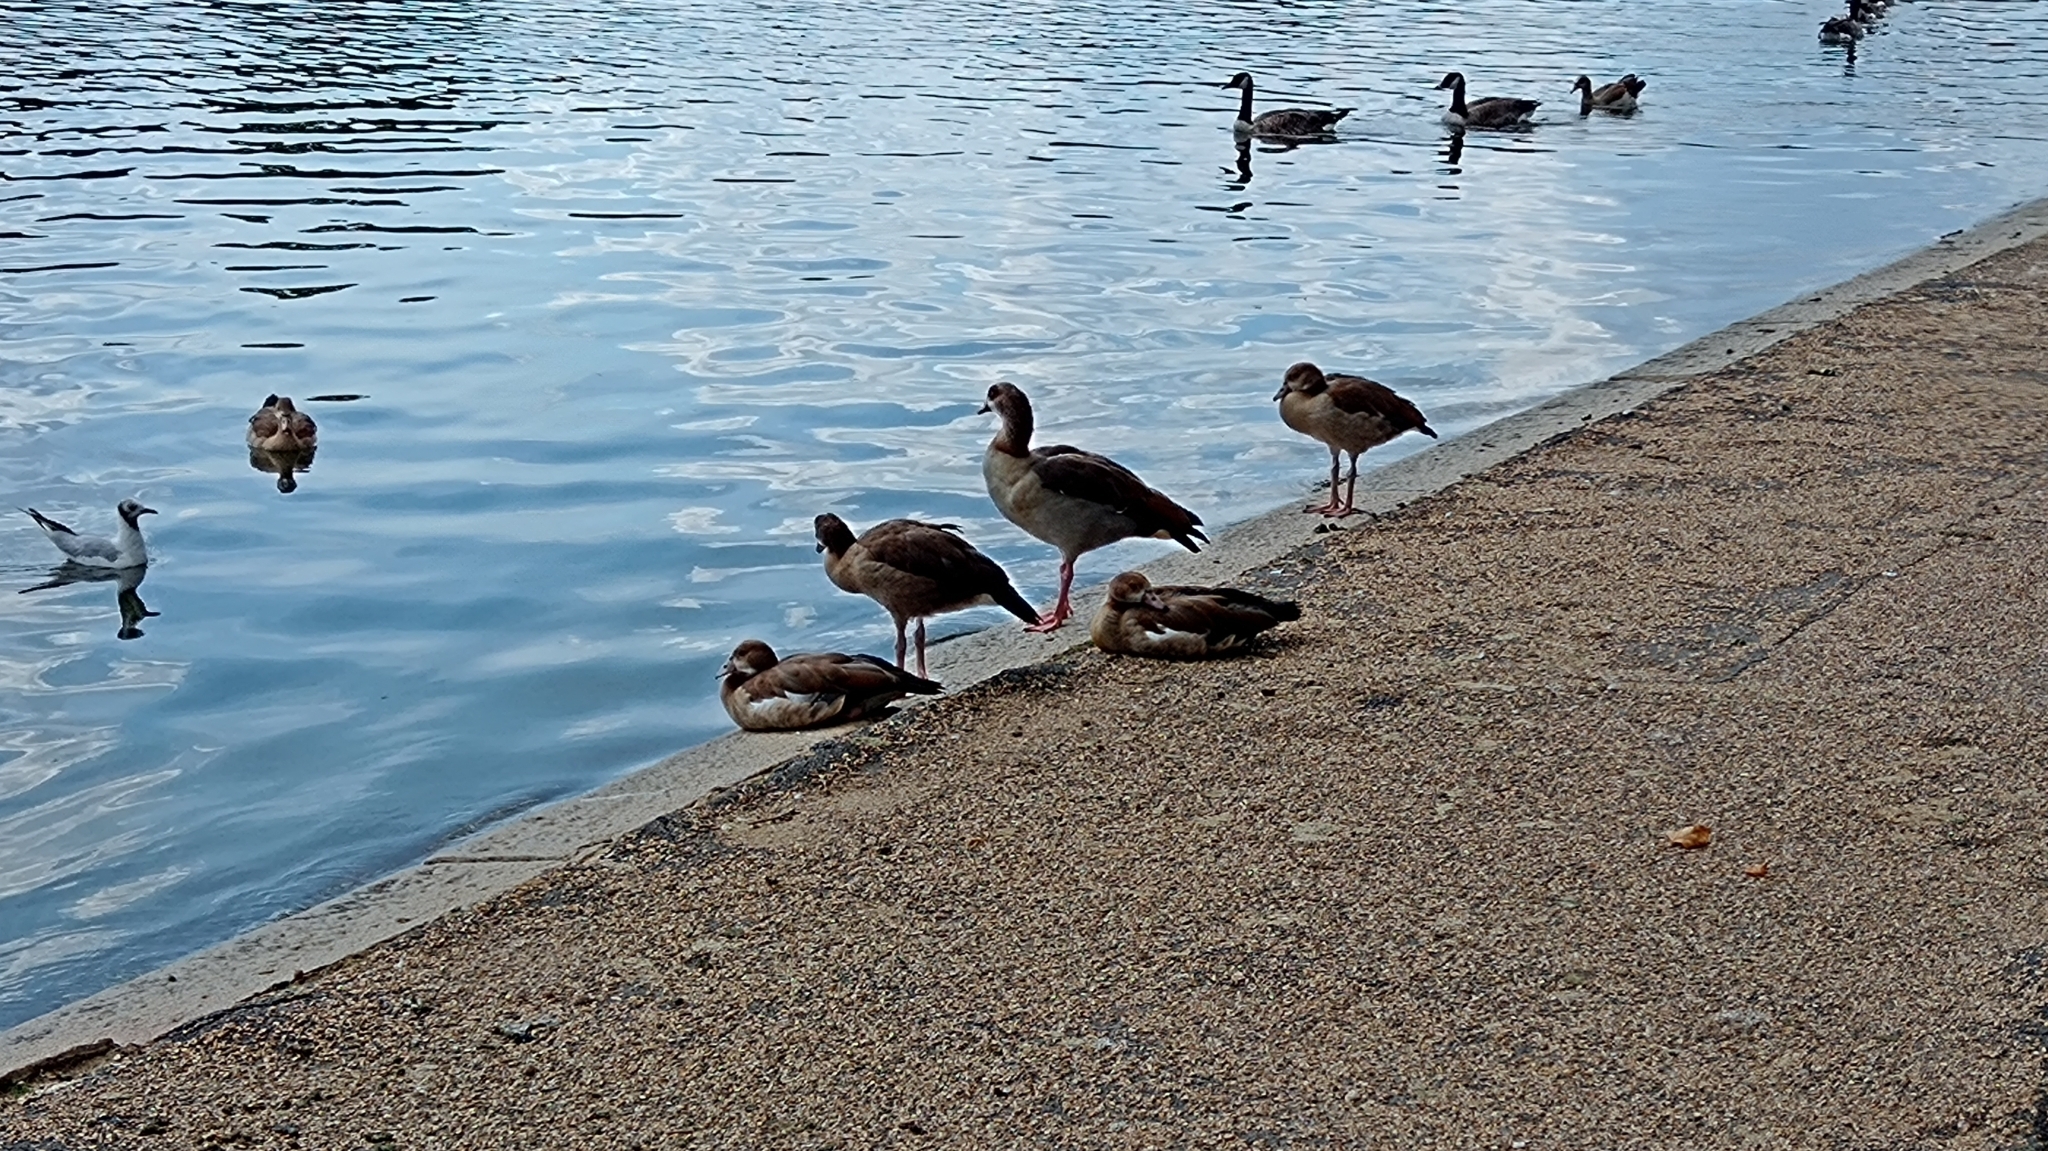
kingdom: Animalia
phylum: Chordata
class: Aves
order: Anseriformes
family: Anatidae
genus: Alopochen
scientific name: Alopochen aegyptiaca
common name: Egyptian goose
